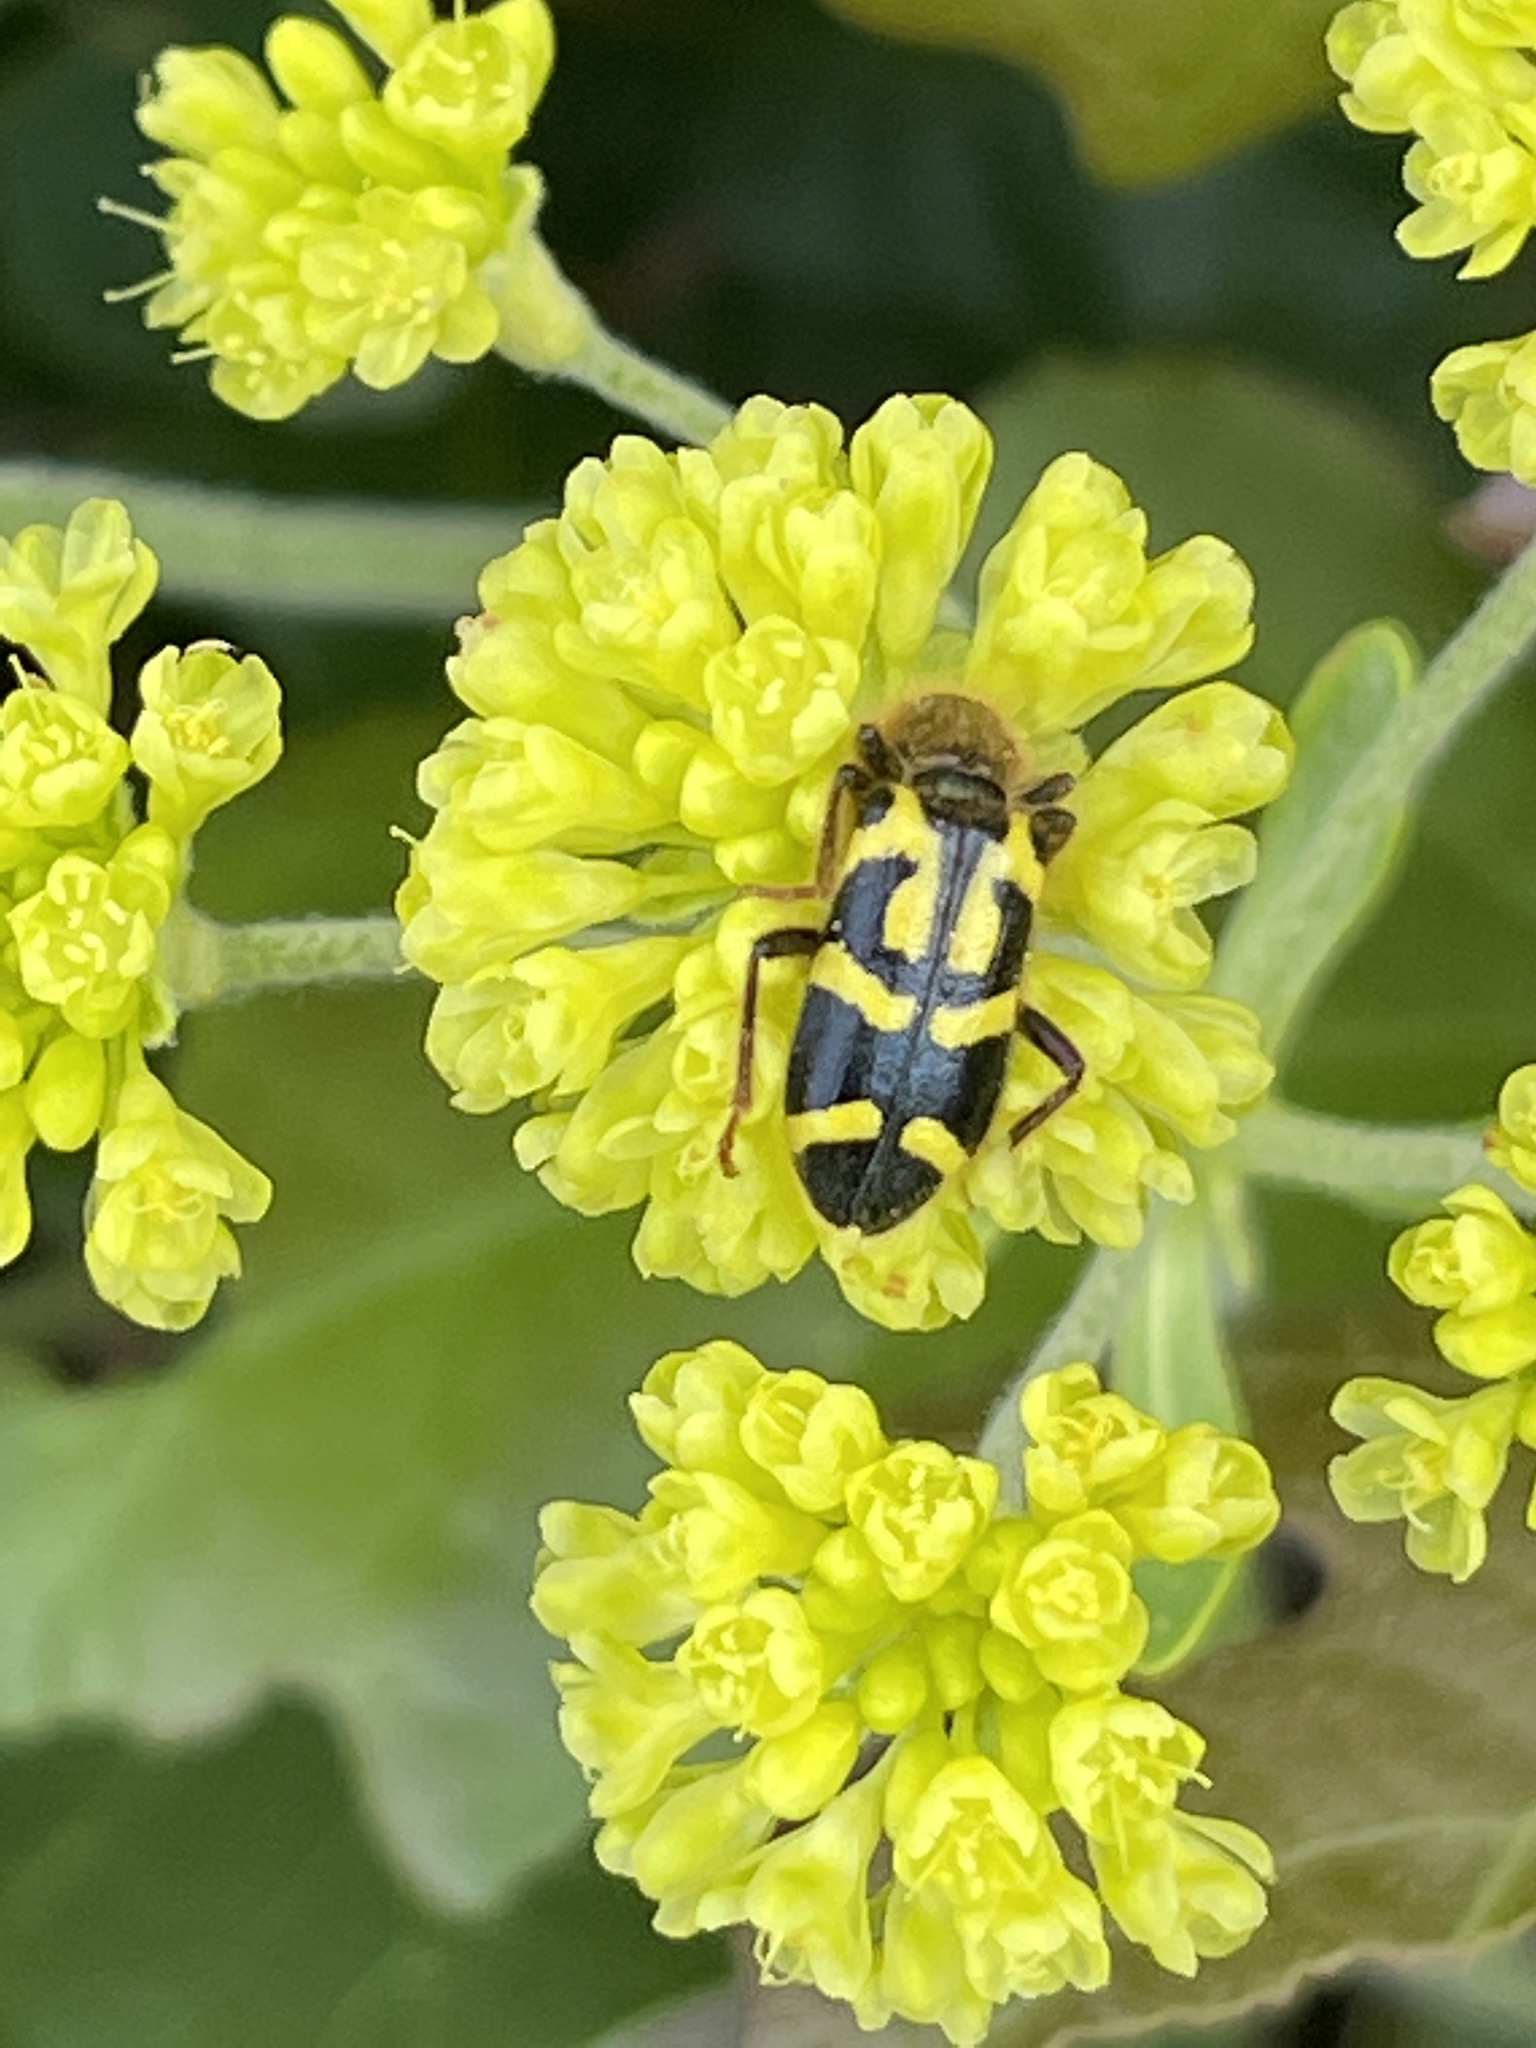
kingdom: Animalia
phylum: Arthropoda
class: Insecta
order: Coleoptera
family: Cleridae
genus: Trichodes
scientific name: Trichodes ornatus
